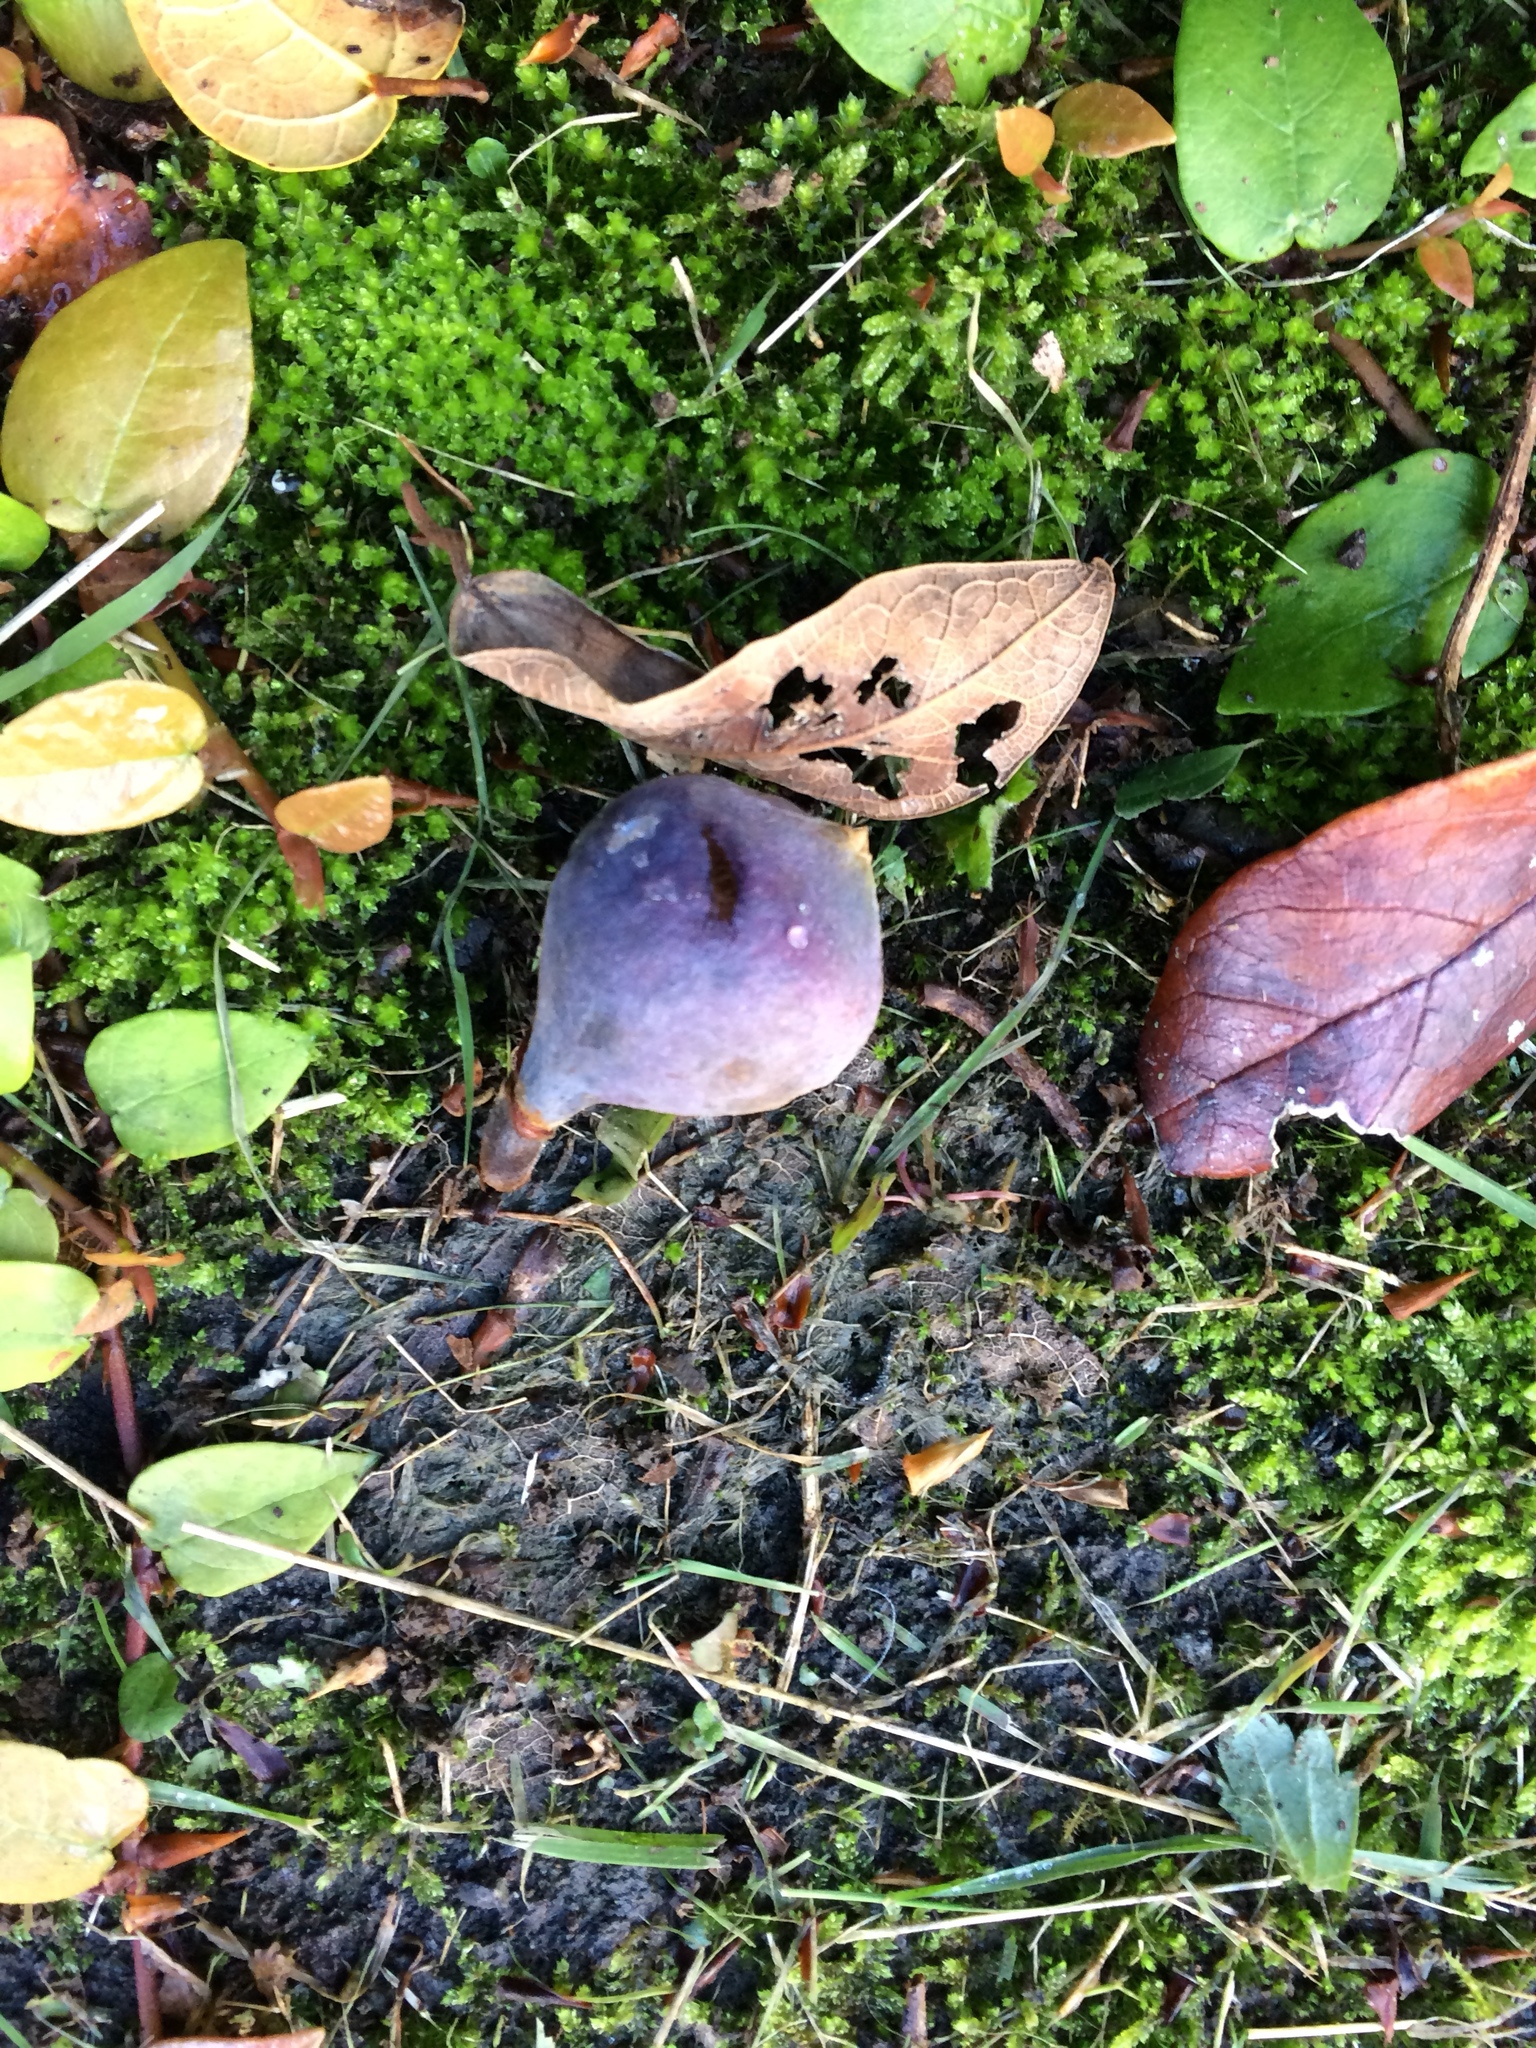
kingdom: Plantae
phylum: Tracheophyta
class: Magnoliopsida
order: Rosales
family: Moraceae
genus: Ficus
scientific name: Ficus pumila
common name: Climbingfig
